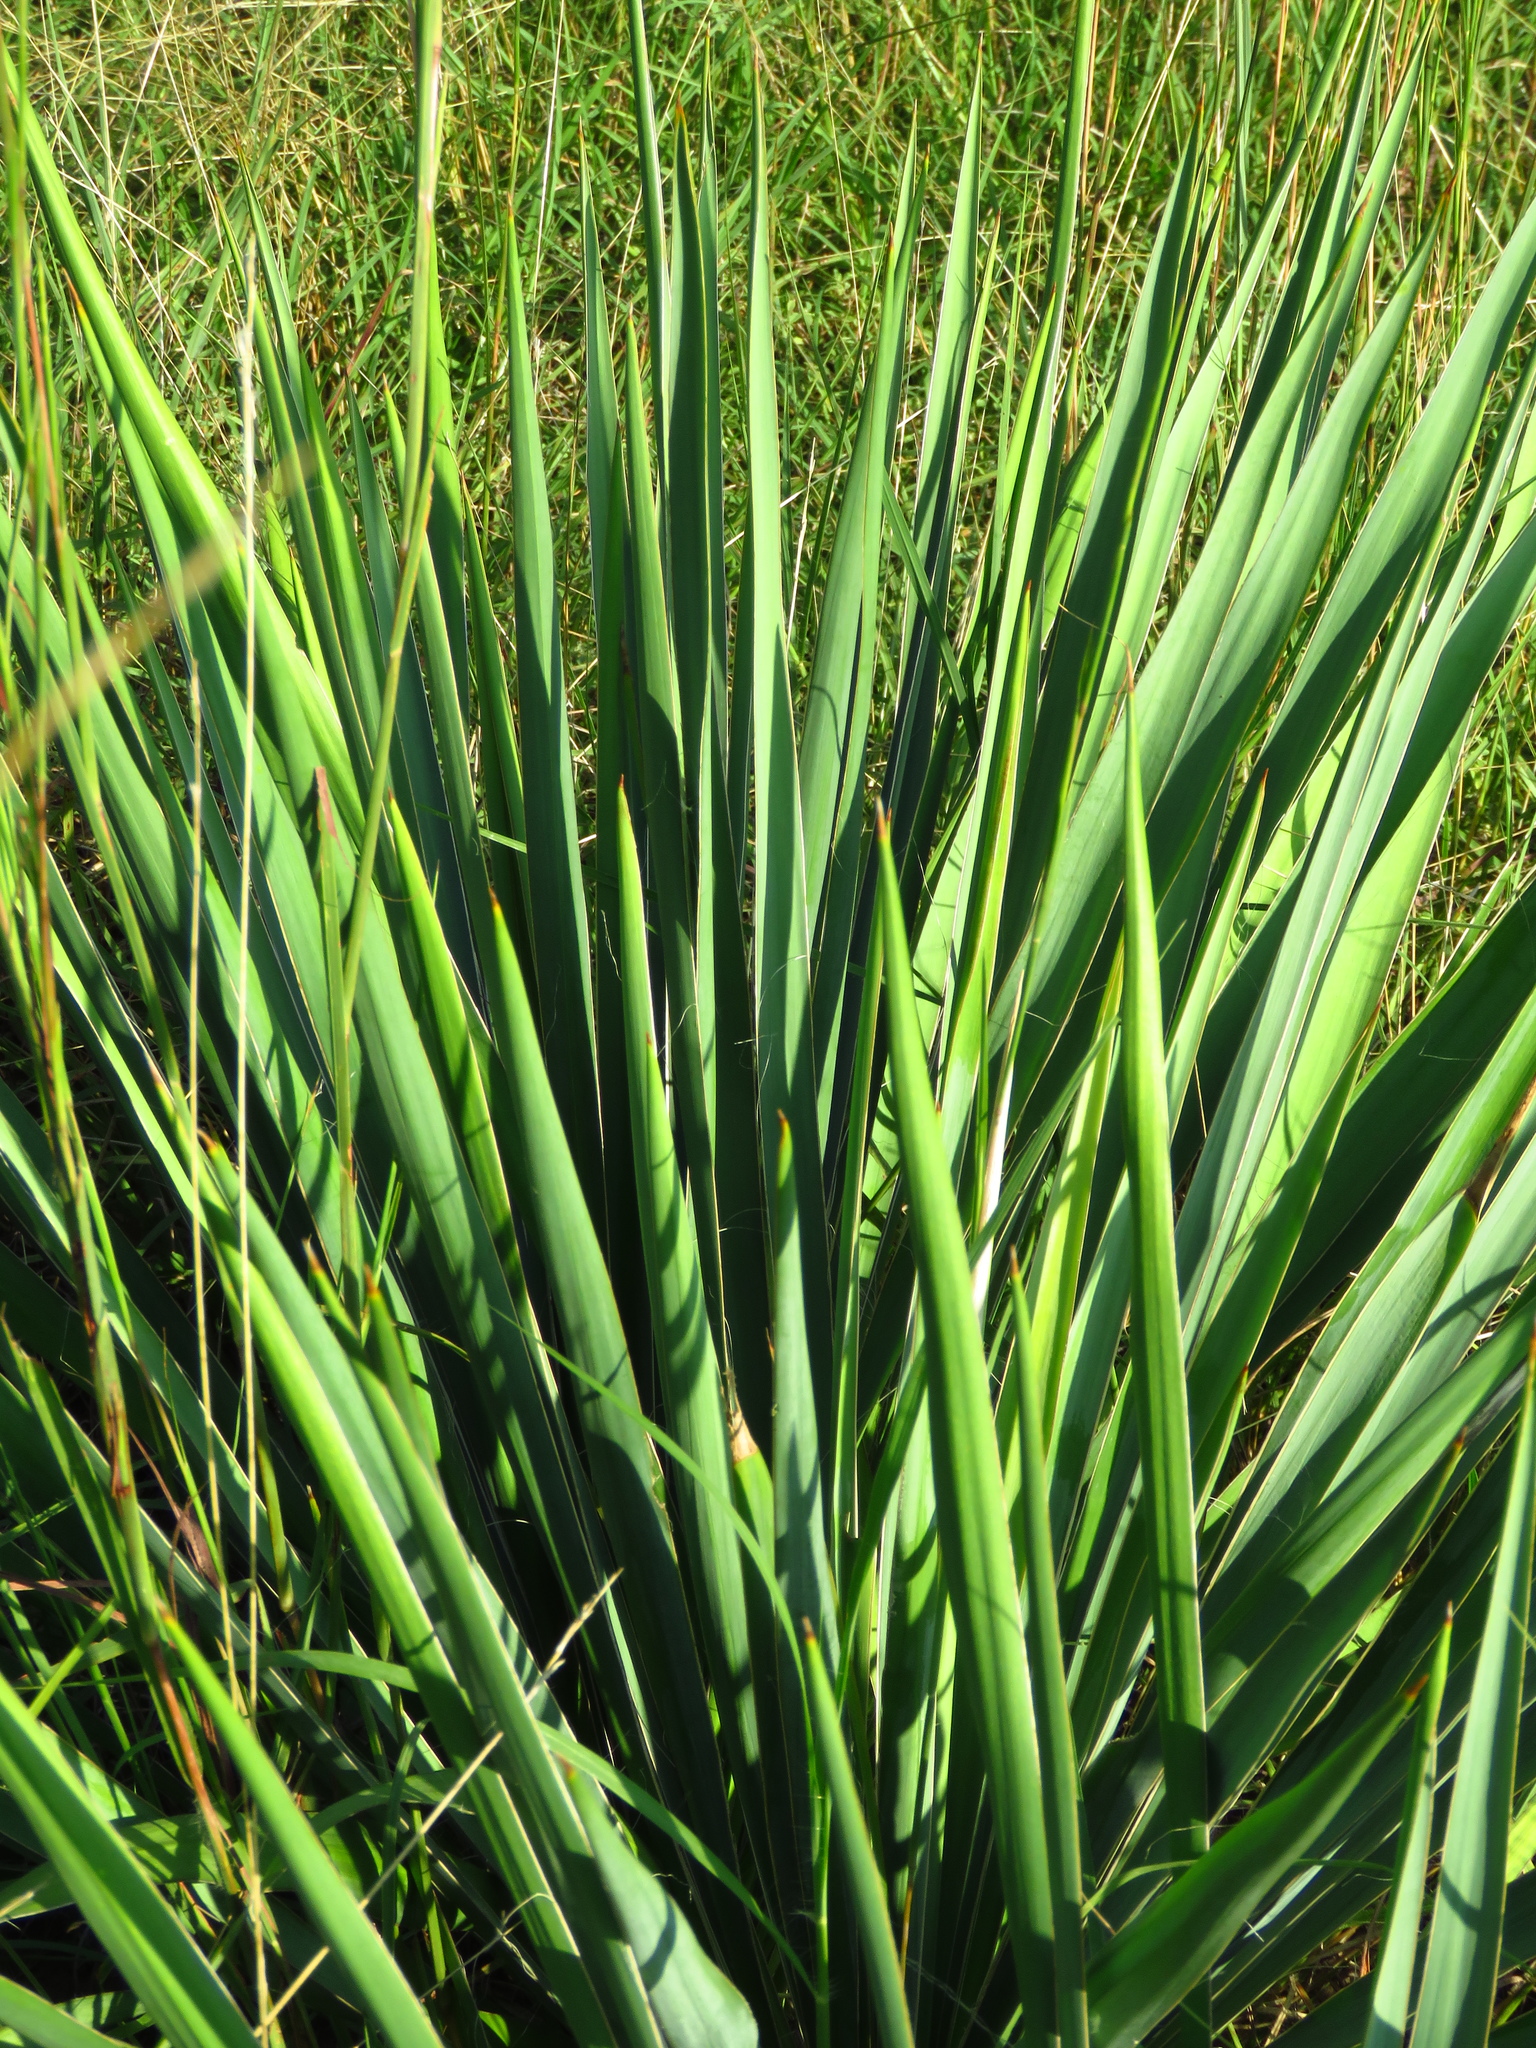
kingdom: Plantae
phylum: Tracheophyta
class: Liliopsida
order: Asparagales
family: Asparagaceae
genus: Yucca
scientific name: Yucca arkansana
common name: Arkansas yucca
